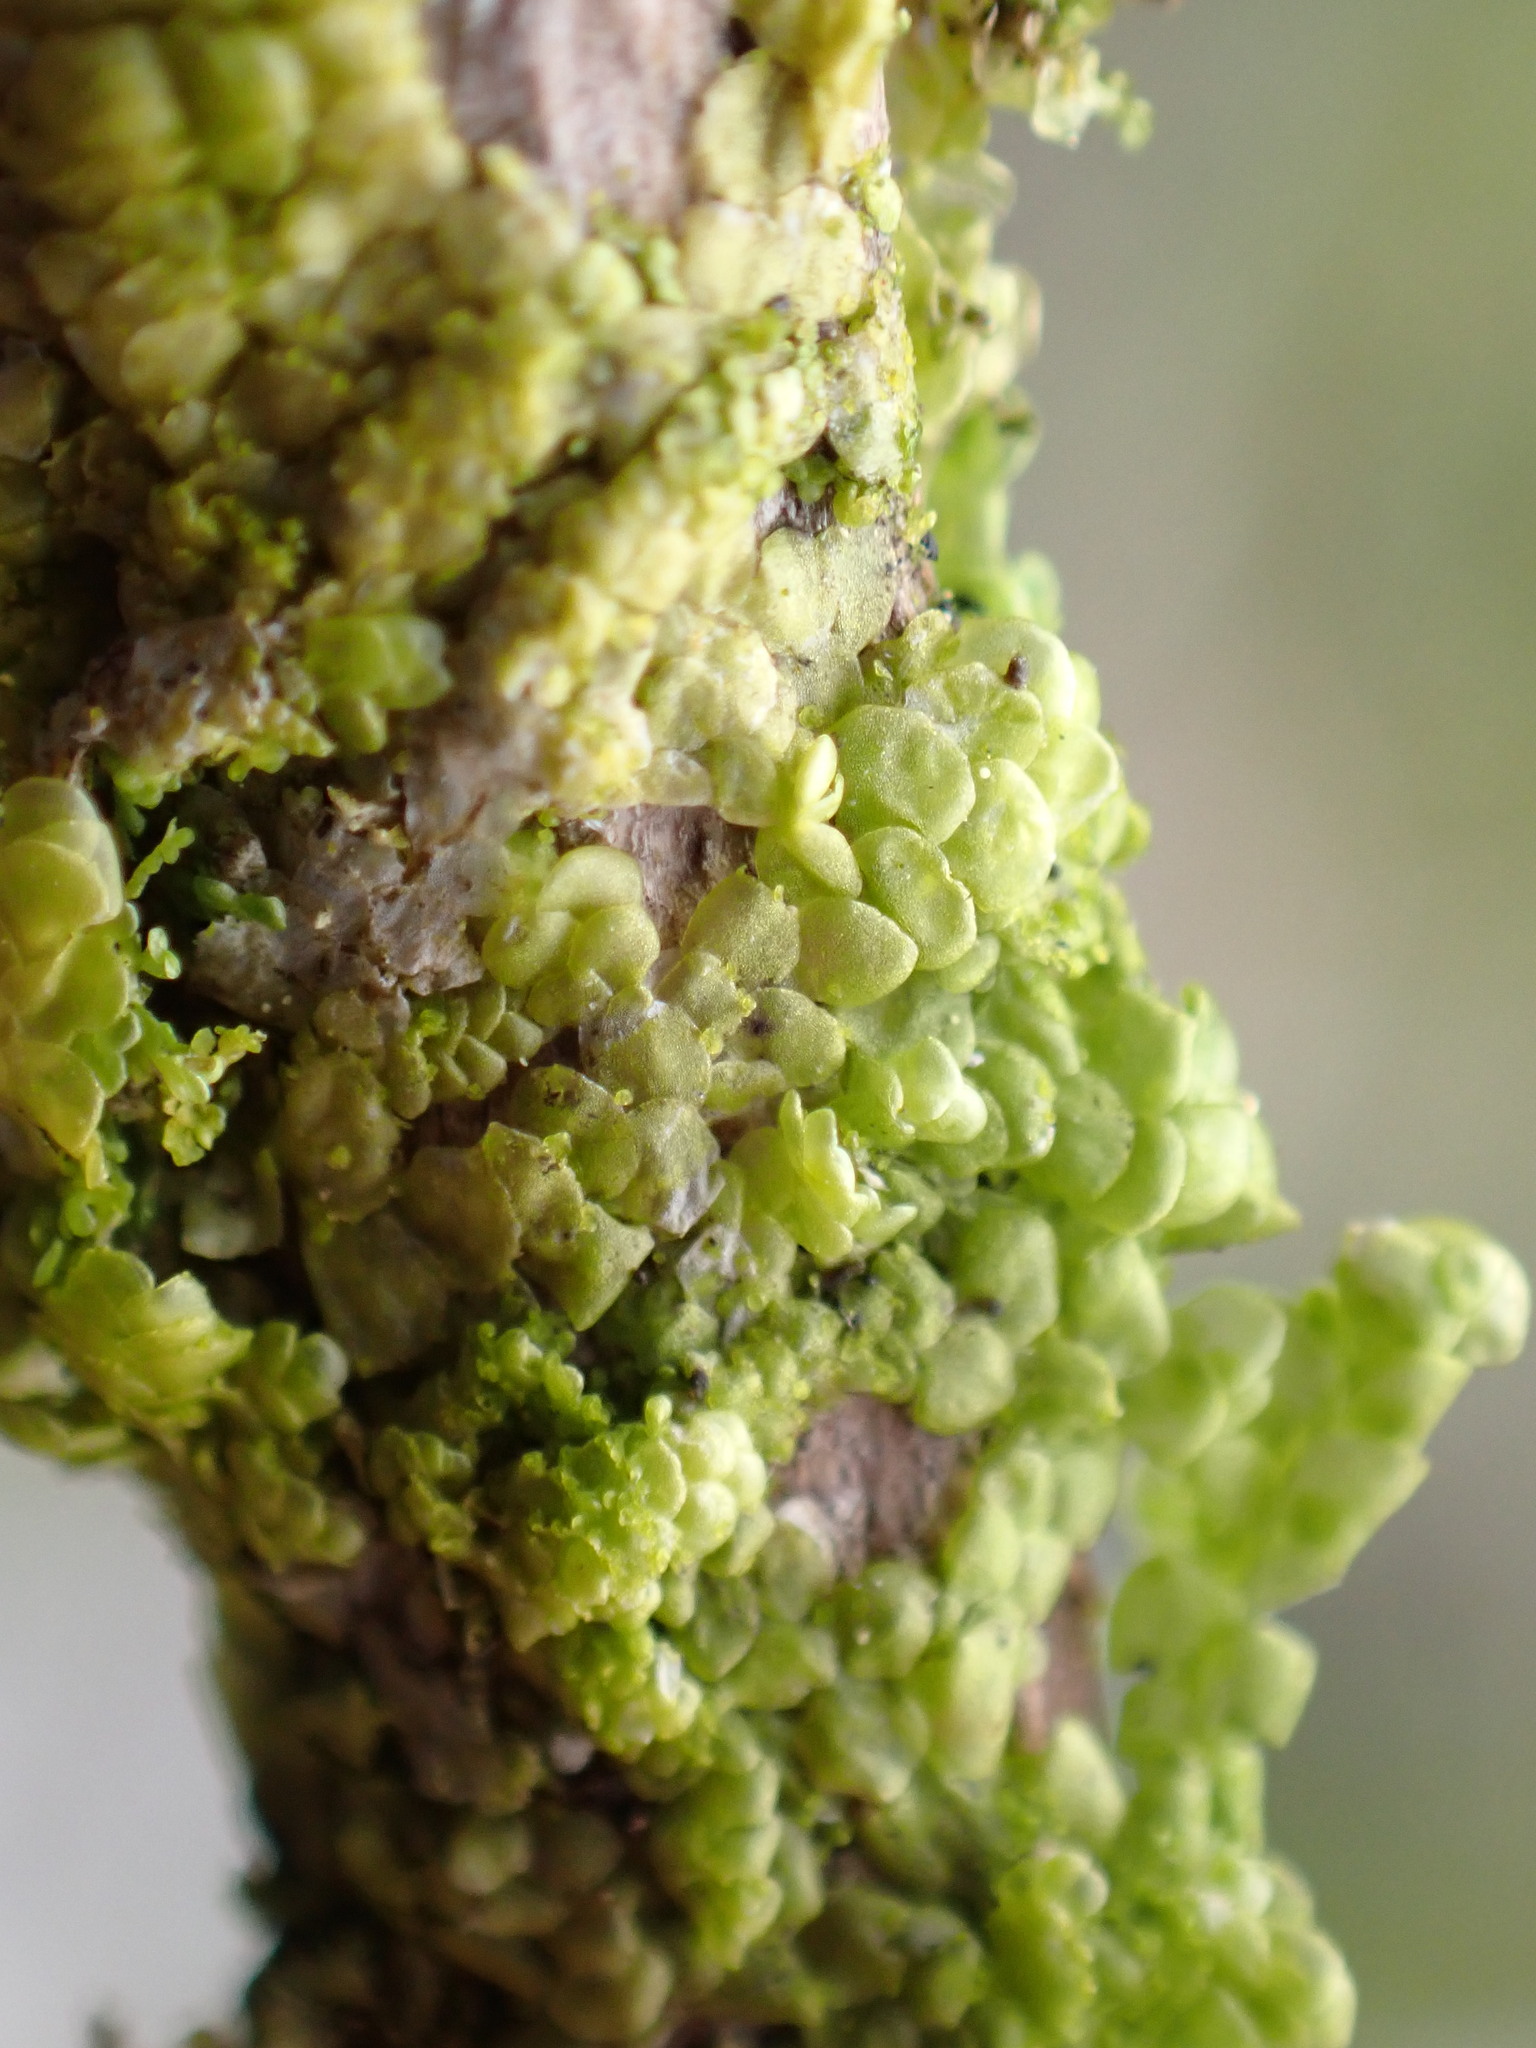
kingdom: Plantae
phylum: Marchantiophyta
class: Jungermanniopsida
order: Porellales
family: Radulaceae
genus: Radula
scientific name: Radula complanata
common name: Flat-leaved scalewort
